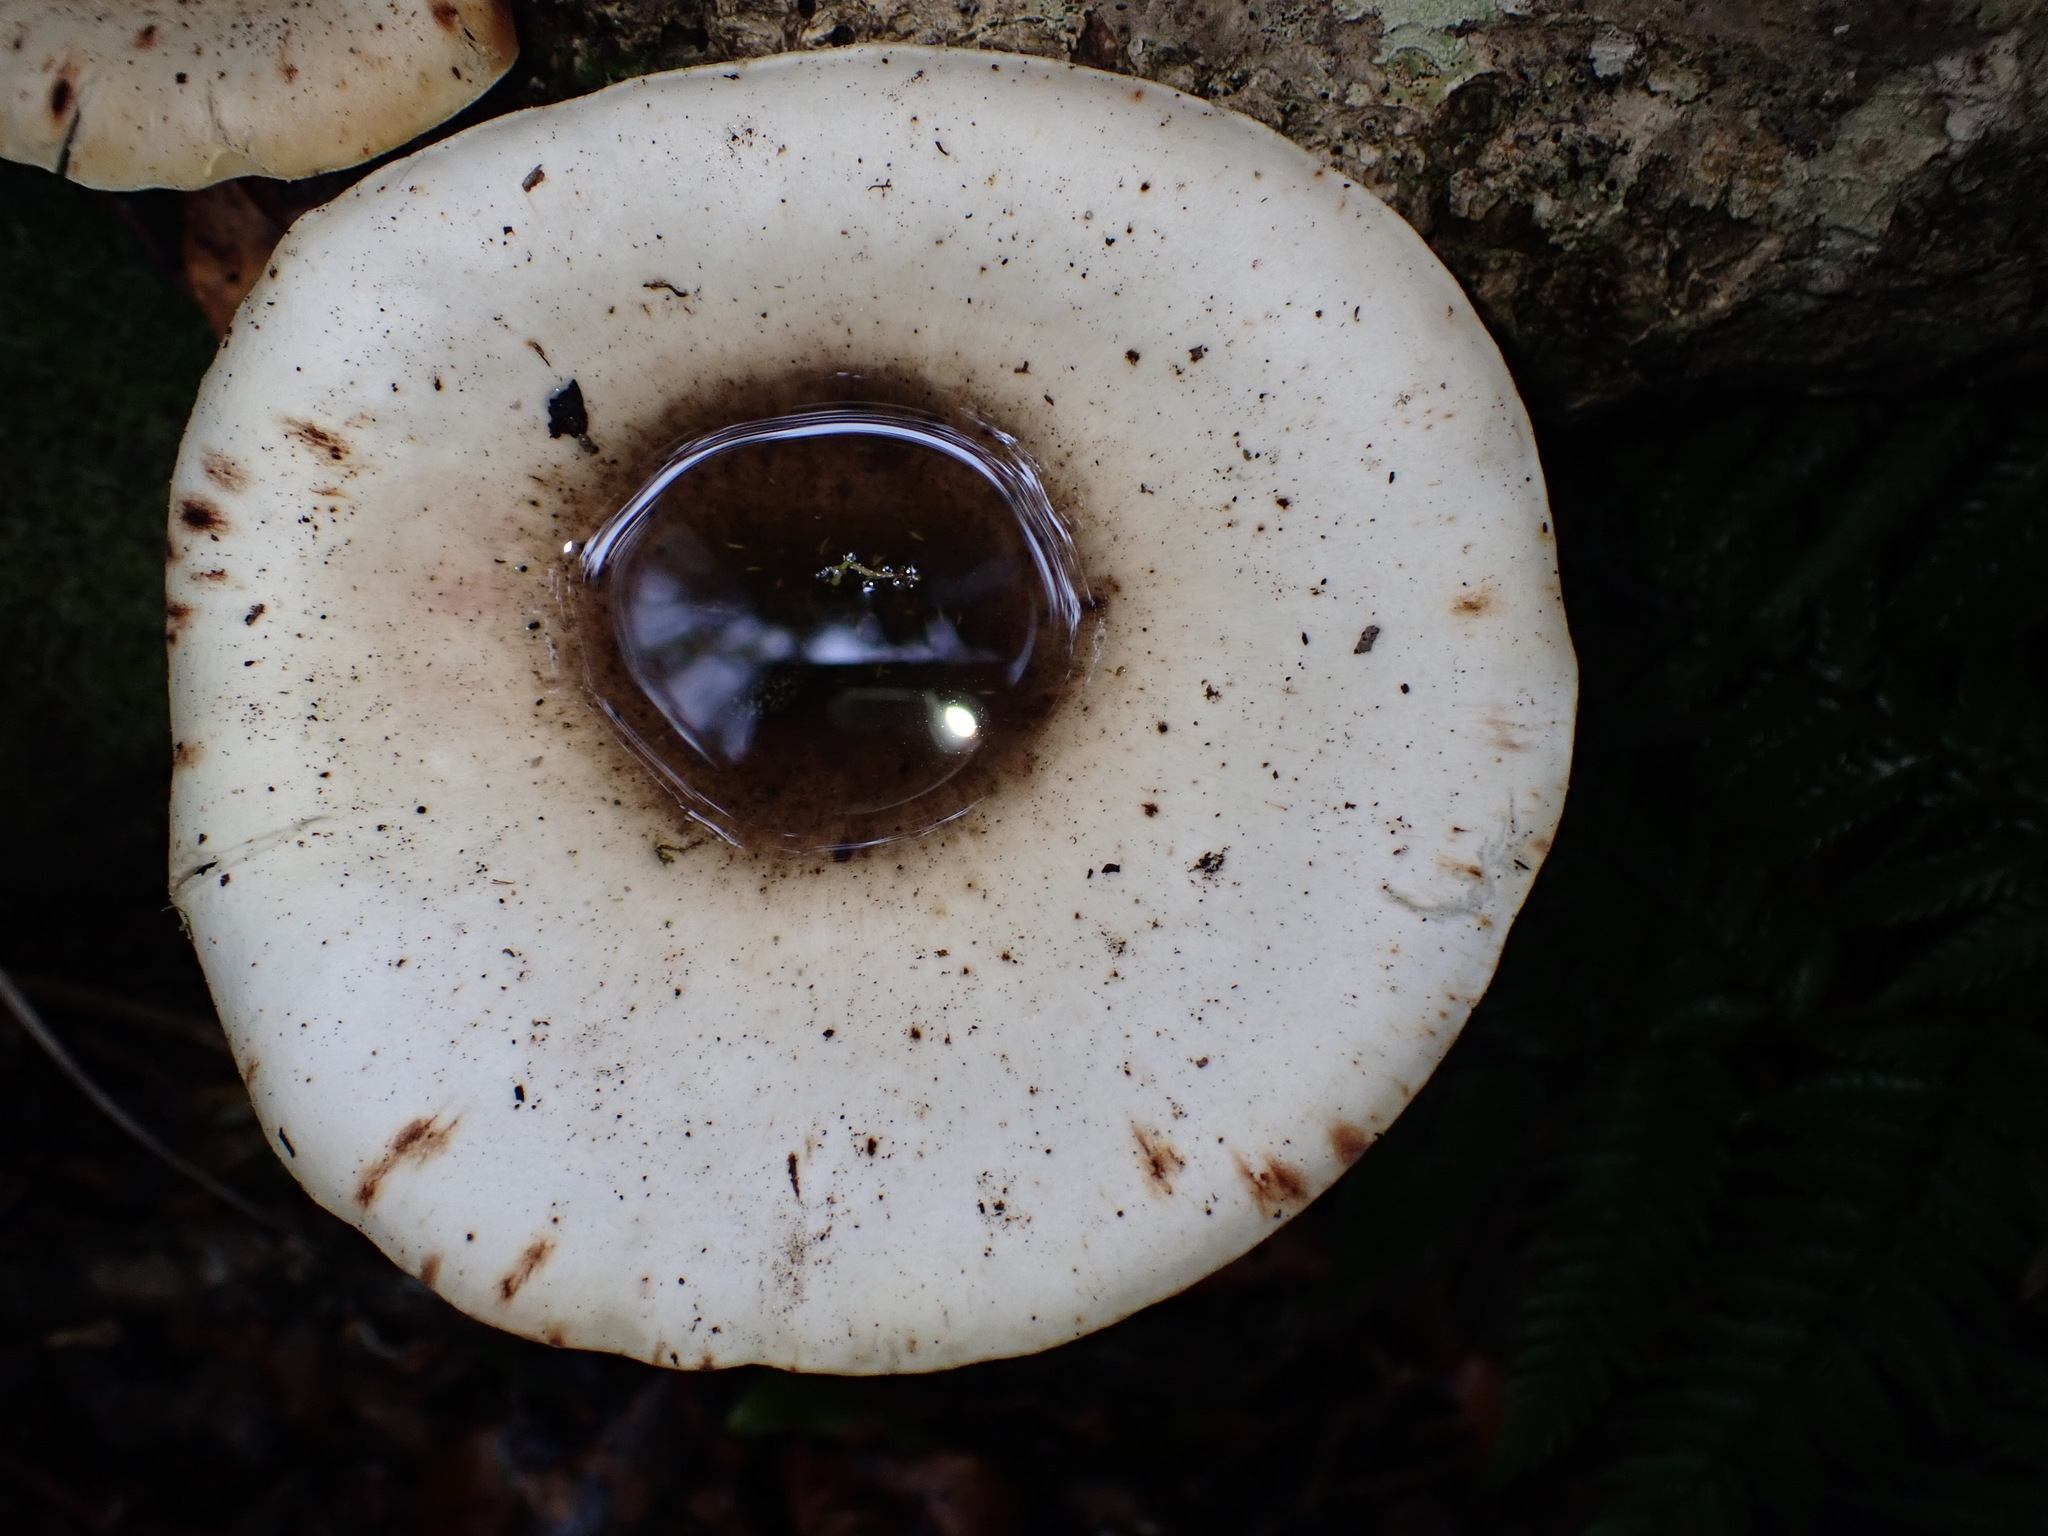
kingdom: Fungi
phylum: Basidiomycota
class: Agaricomycetes
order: Polyporales
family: Polyporaceae
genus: Lentinus
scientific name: Lentinus sajor-caju
